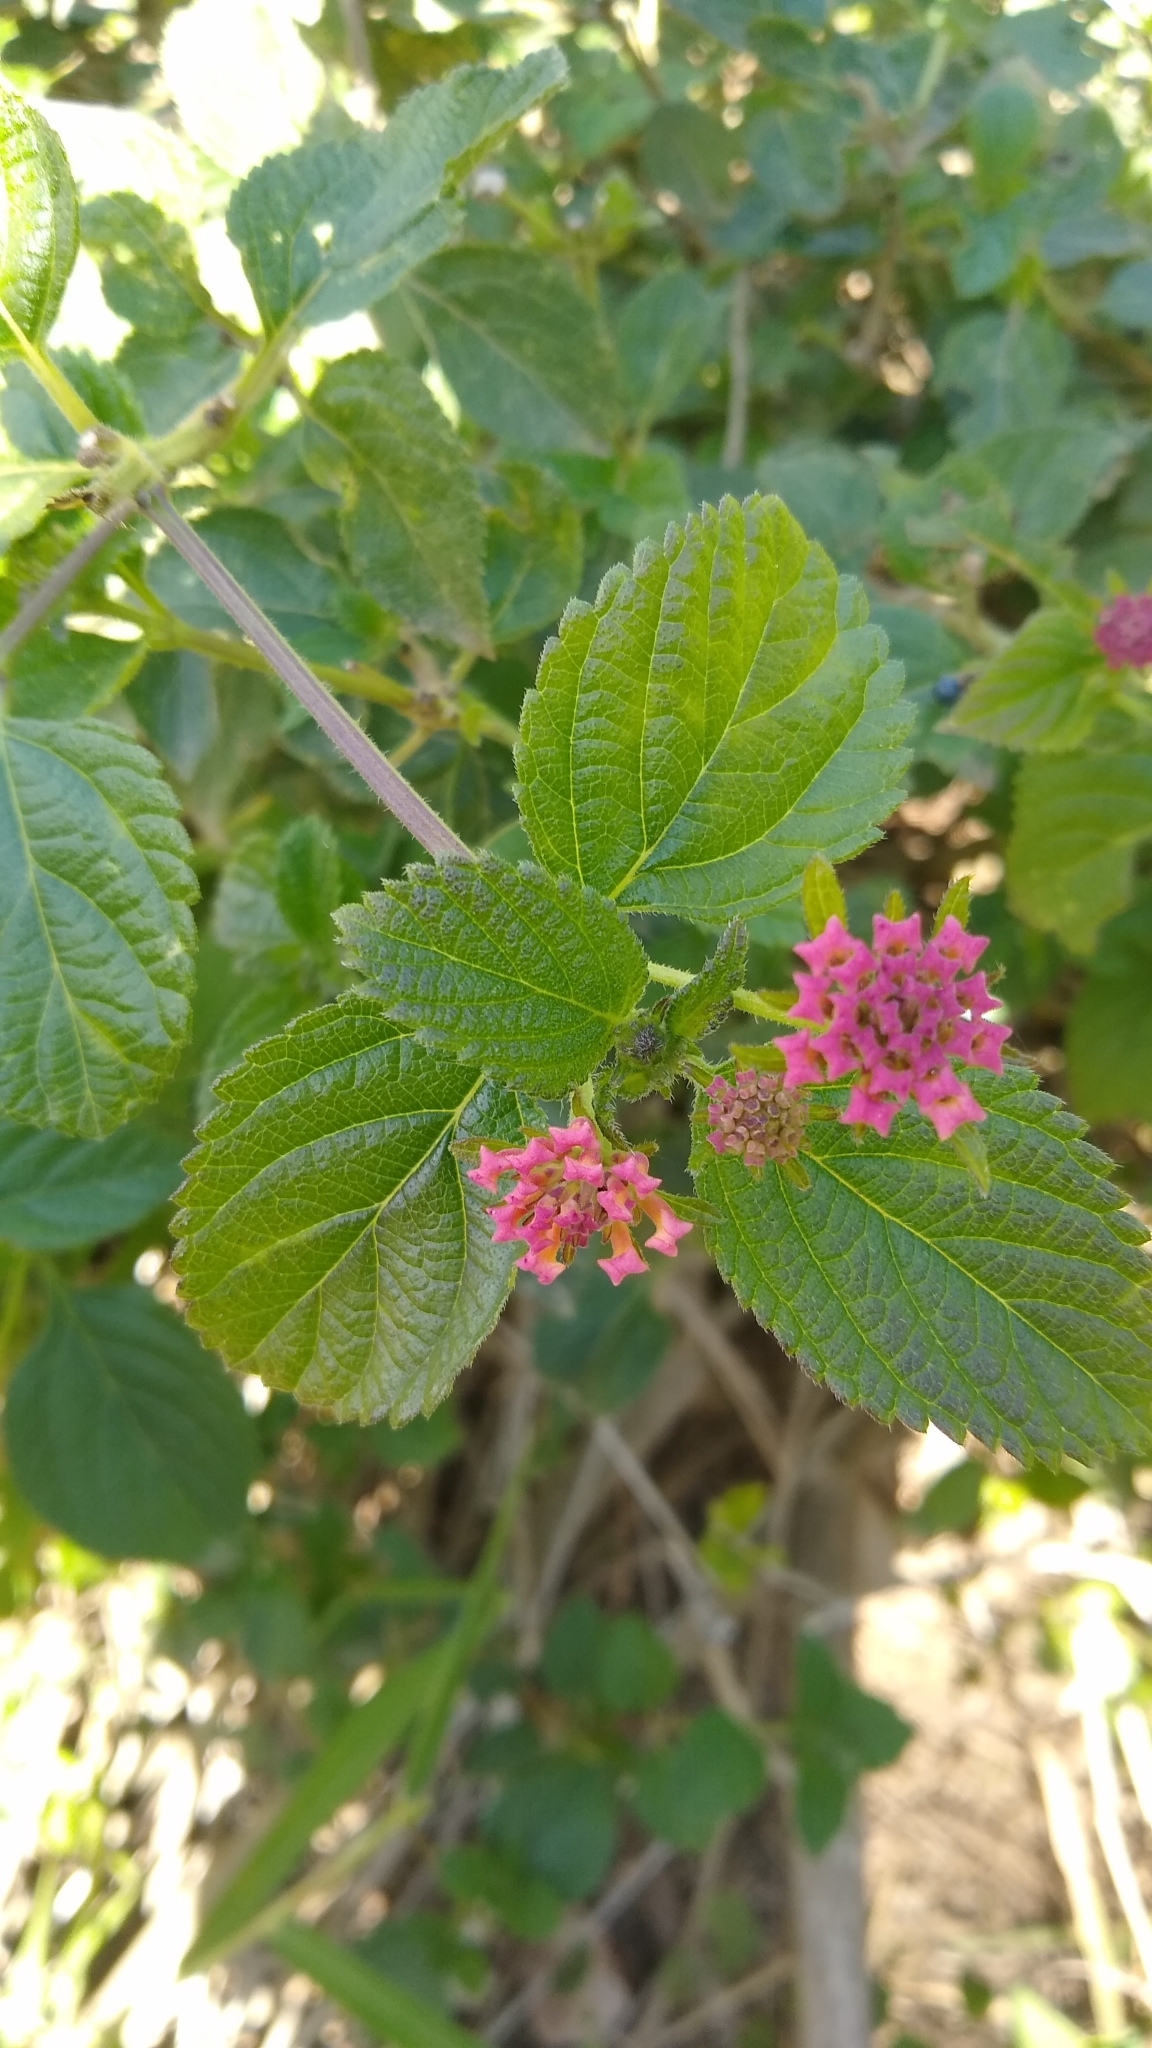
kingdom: Plantae
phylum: Tracheophyta
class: Magnoliopsida
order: Lamiales
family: Verbenaceae
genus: Lantana
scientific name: Lantana camara
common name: Lantana
